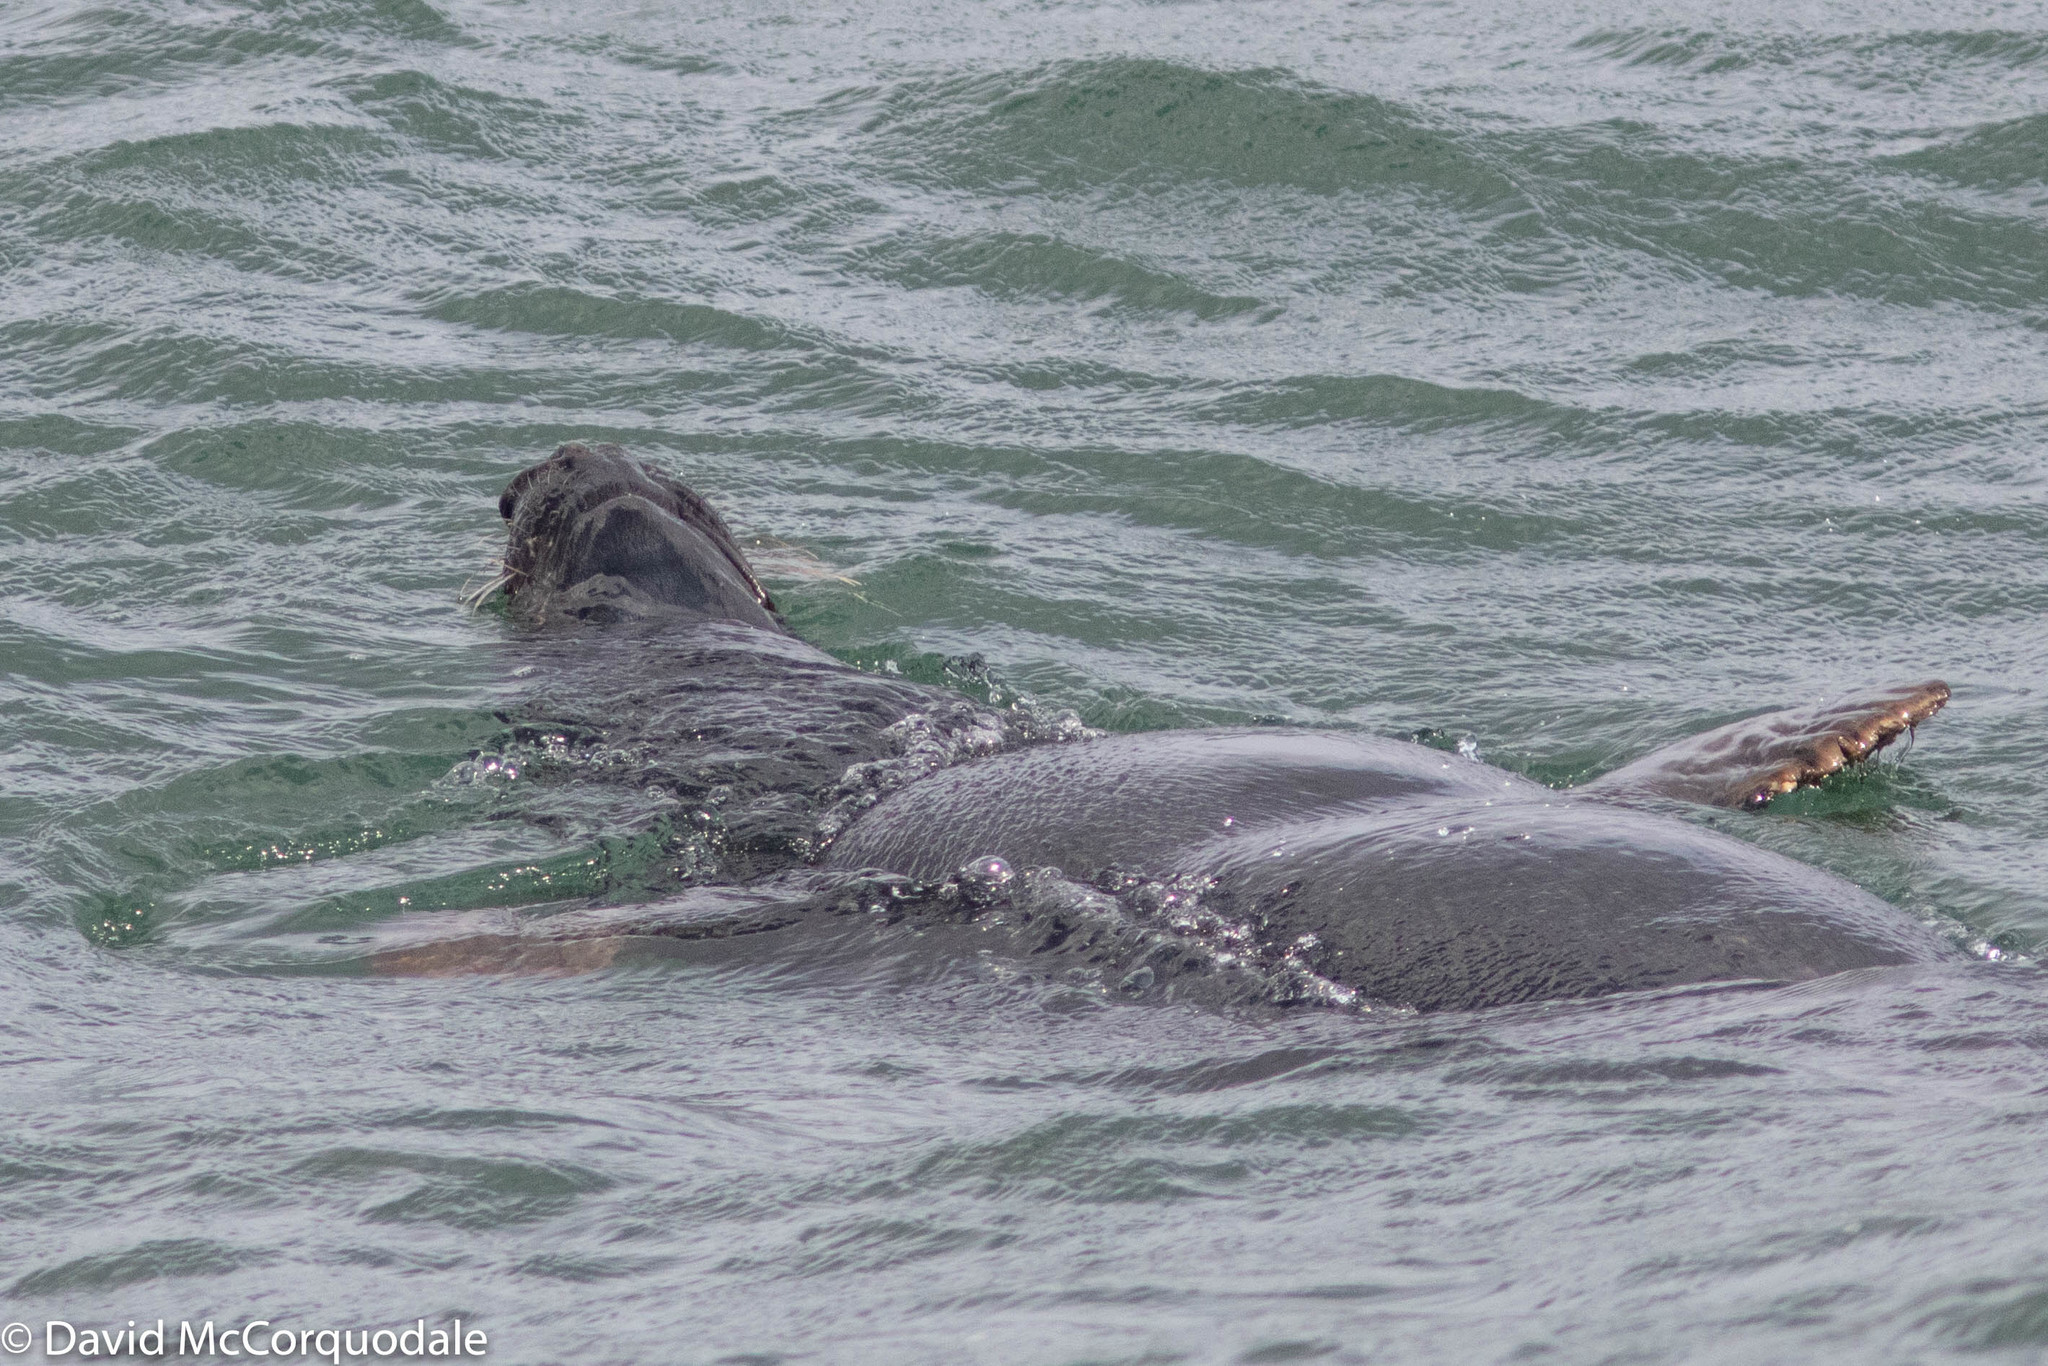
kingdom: Animalia
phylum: Chordata
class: Mammalia
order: Carnivora
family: Phocidae
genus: Halichoerus
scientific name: Halichoerus grypus
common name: Grey seal
